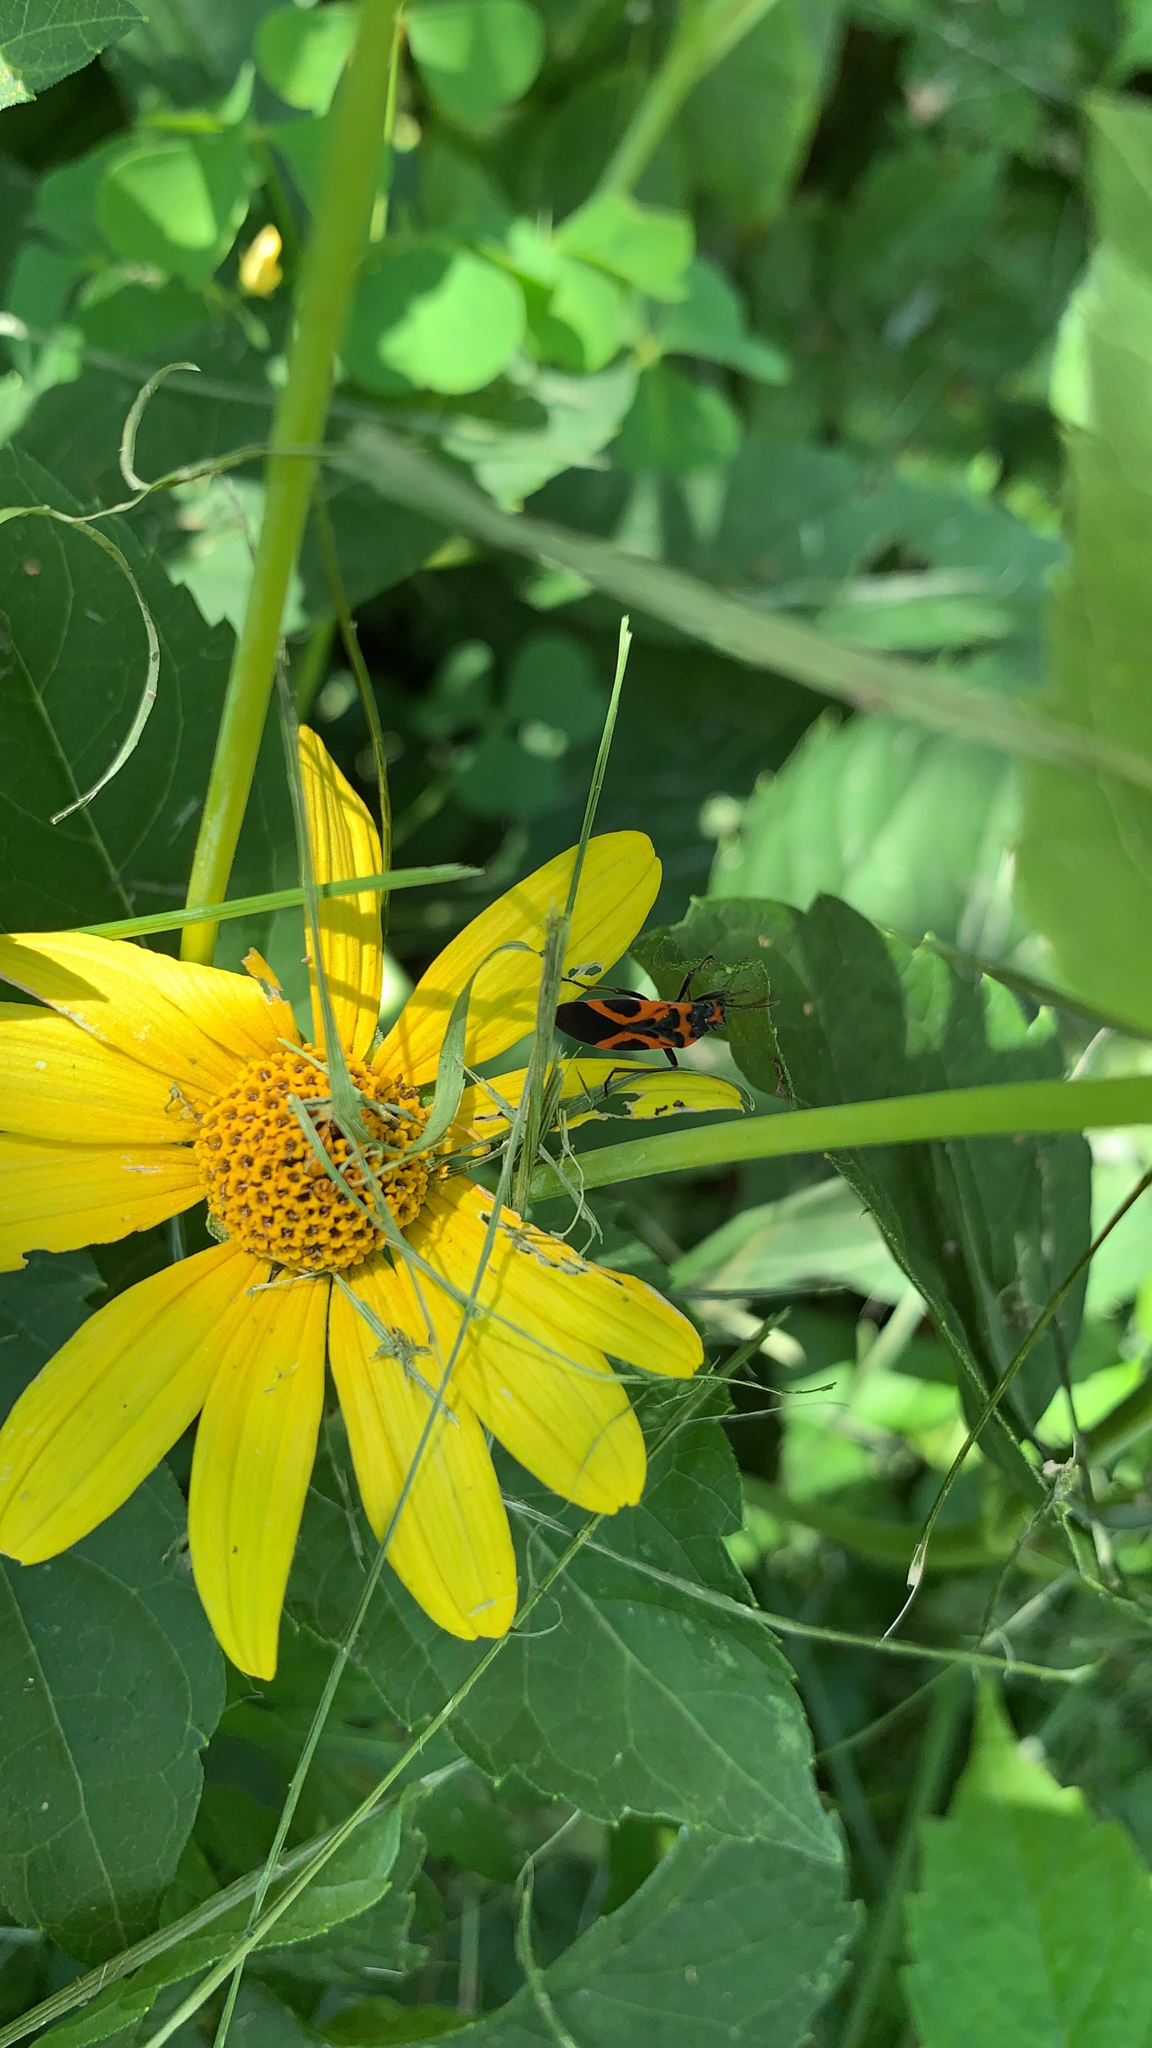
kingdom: Animalia
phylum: Arthropoda
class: Insecta
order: Hemiptera
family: Lygaeidae
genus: Lygaeus
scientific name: Lygaeus turcicus
